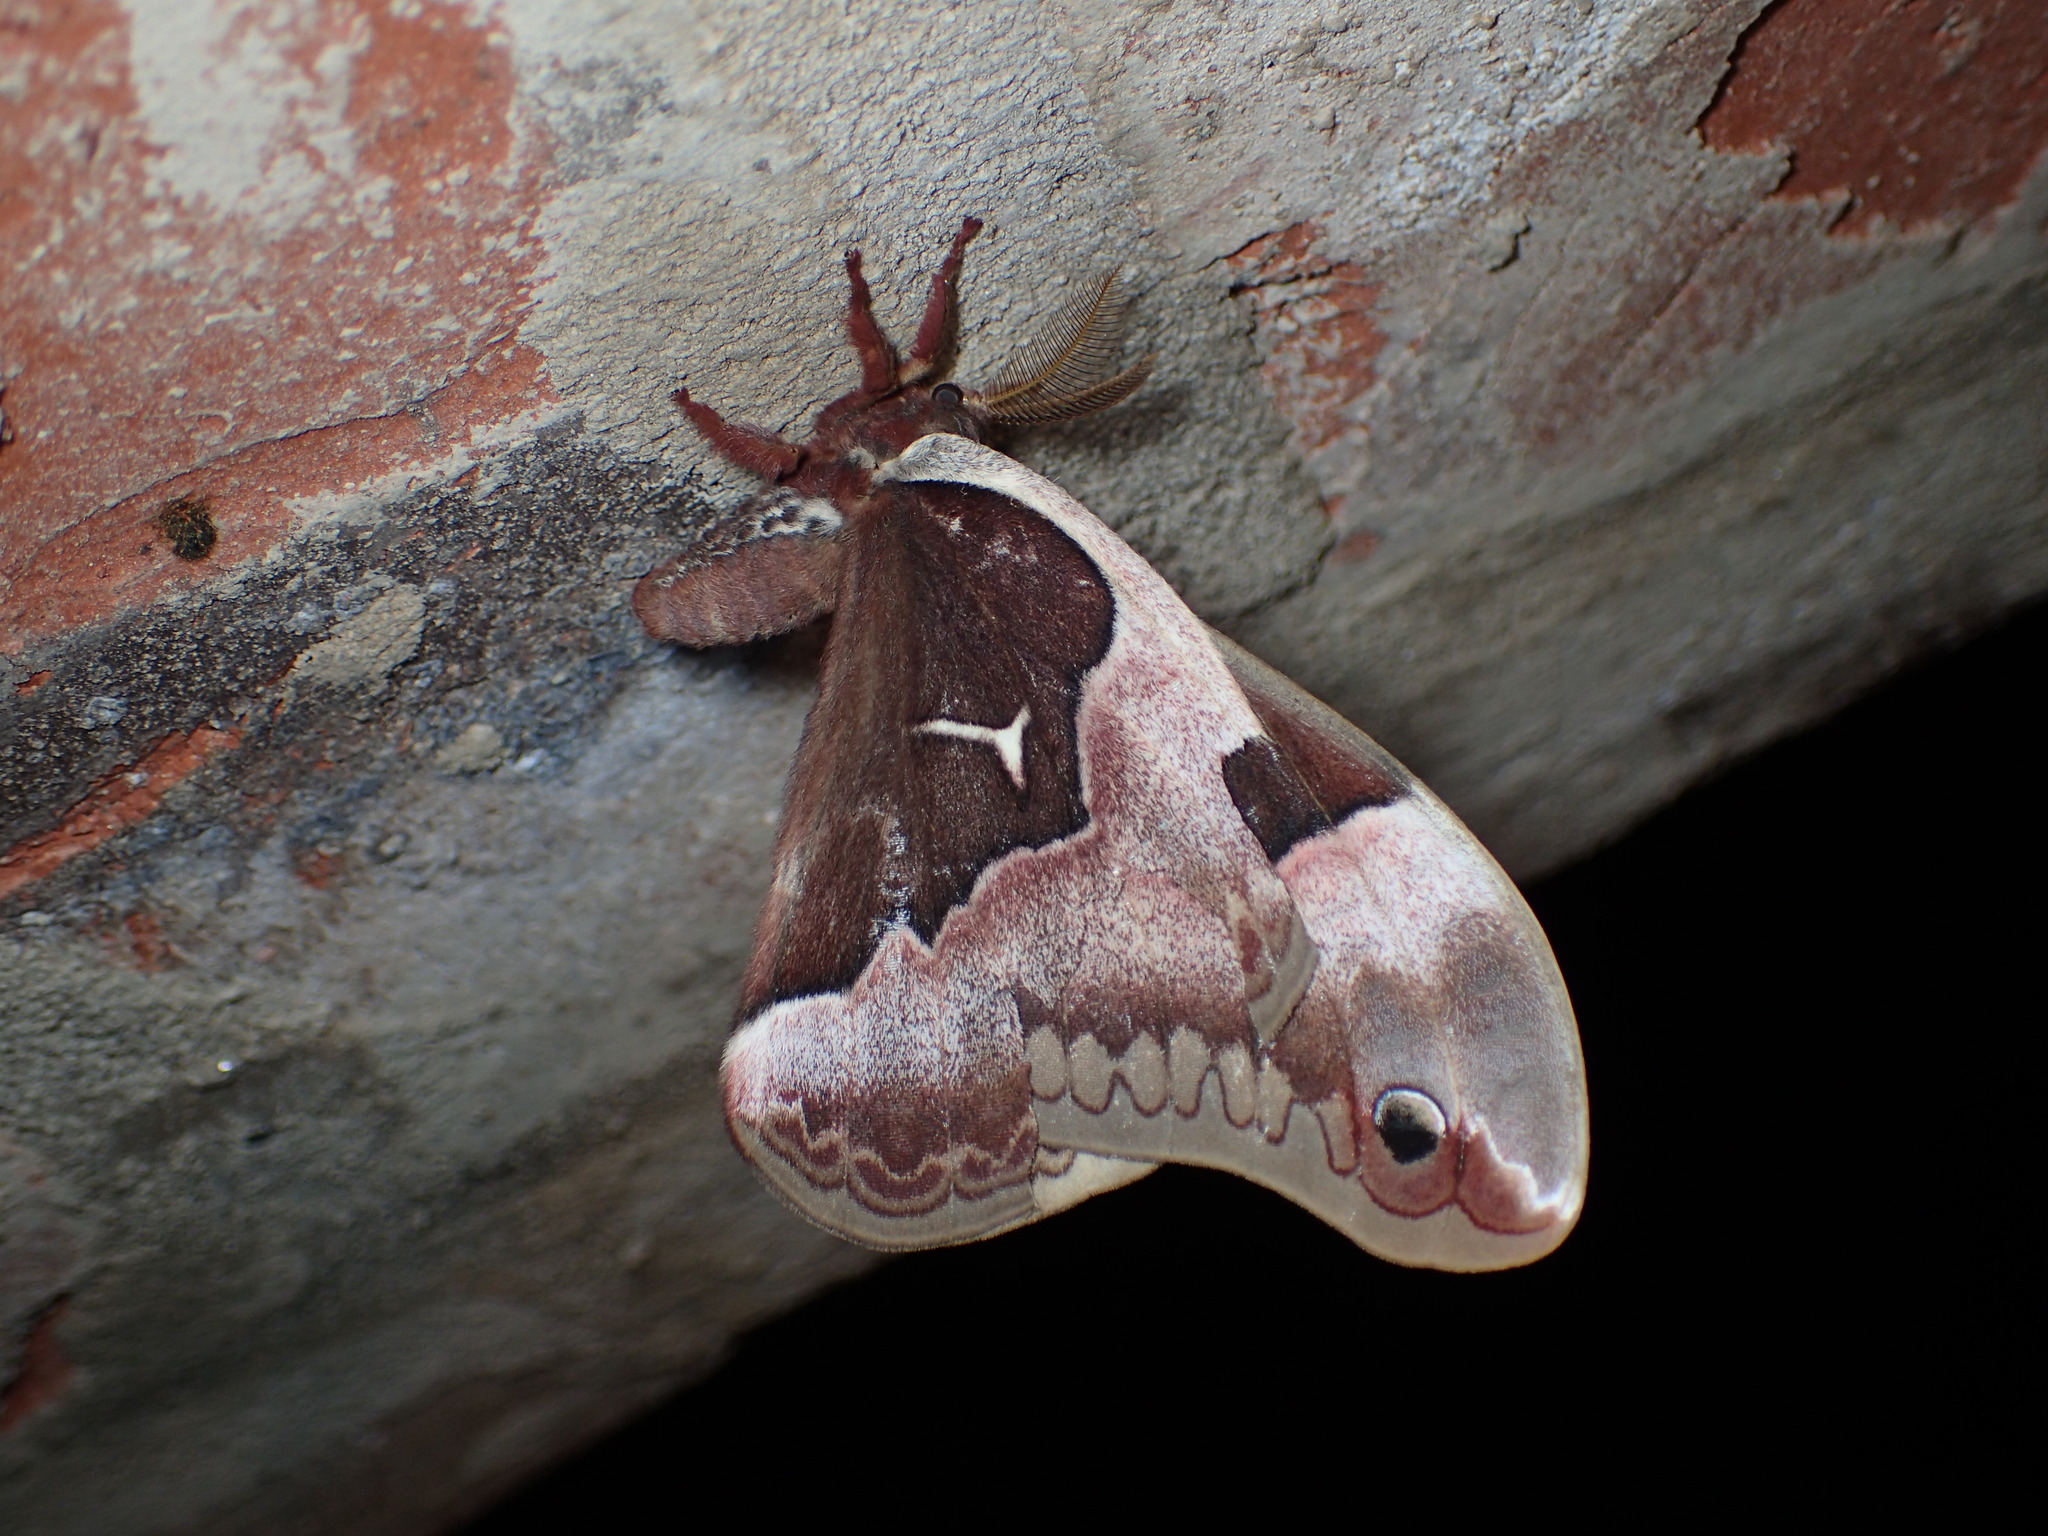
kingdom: Animalia
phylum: Arthropoda
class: Insecta
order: Lepidoptera
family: Saturniidae
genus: Callosamia
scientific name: Callosamia angulifera
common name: Tulip tree silkmoth
